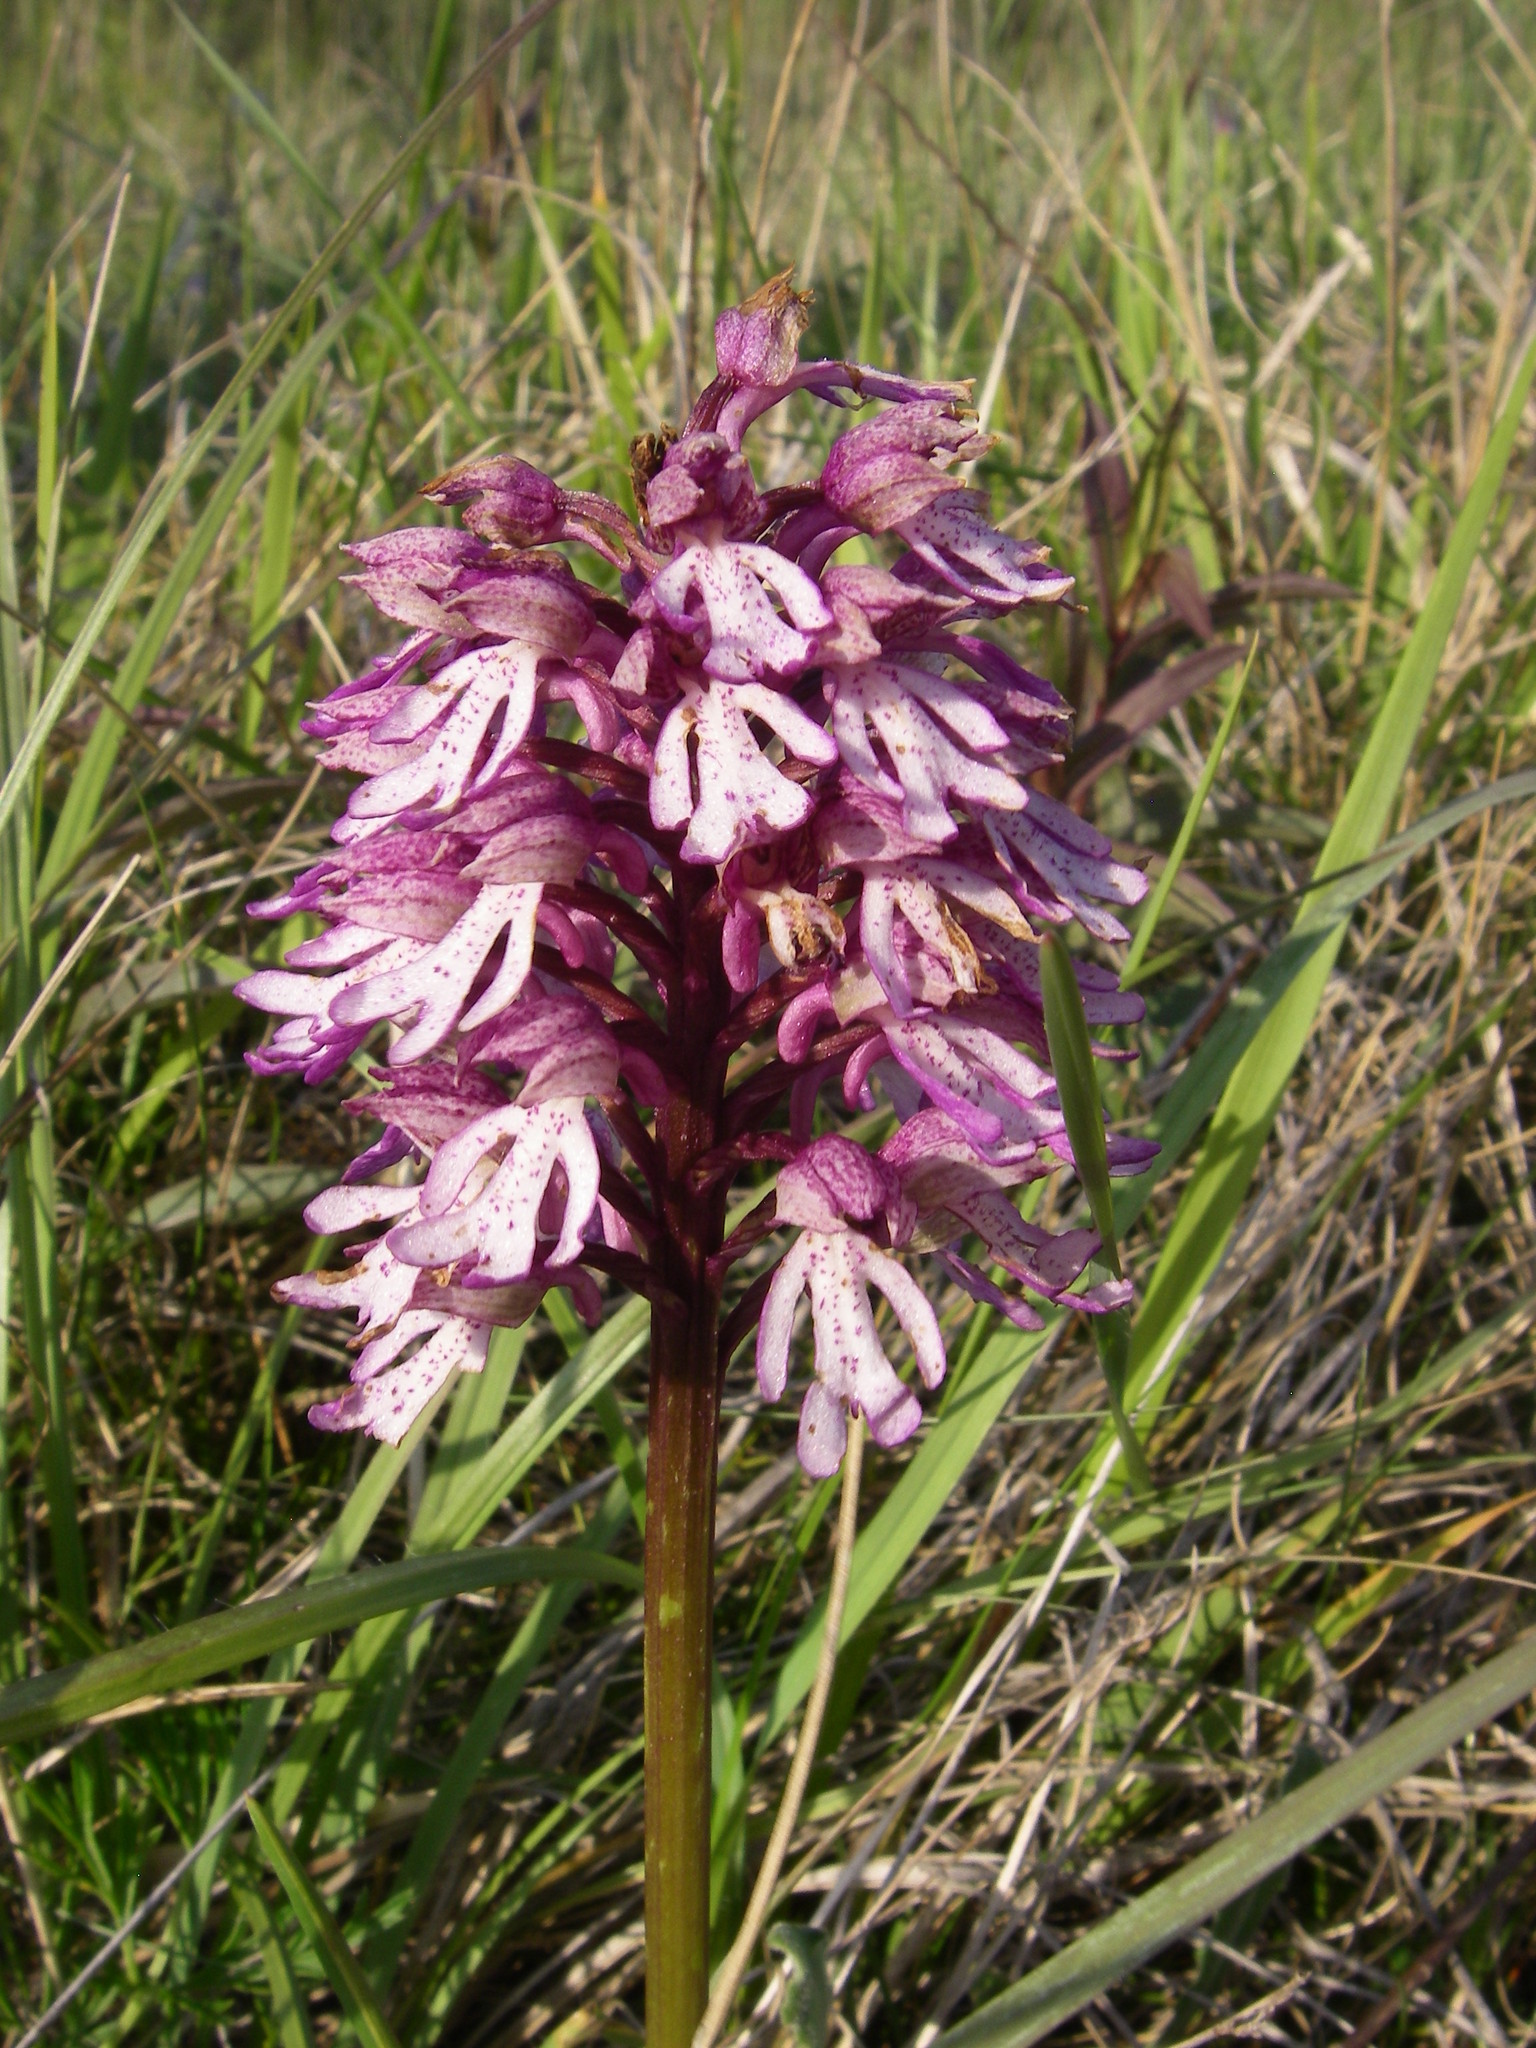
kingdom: Plantae
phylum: Tracheophyta
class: Liliopsida
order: Asparagales
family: Orchidaceae
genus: Orchis
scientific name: Orchis hybrida
